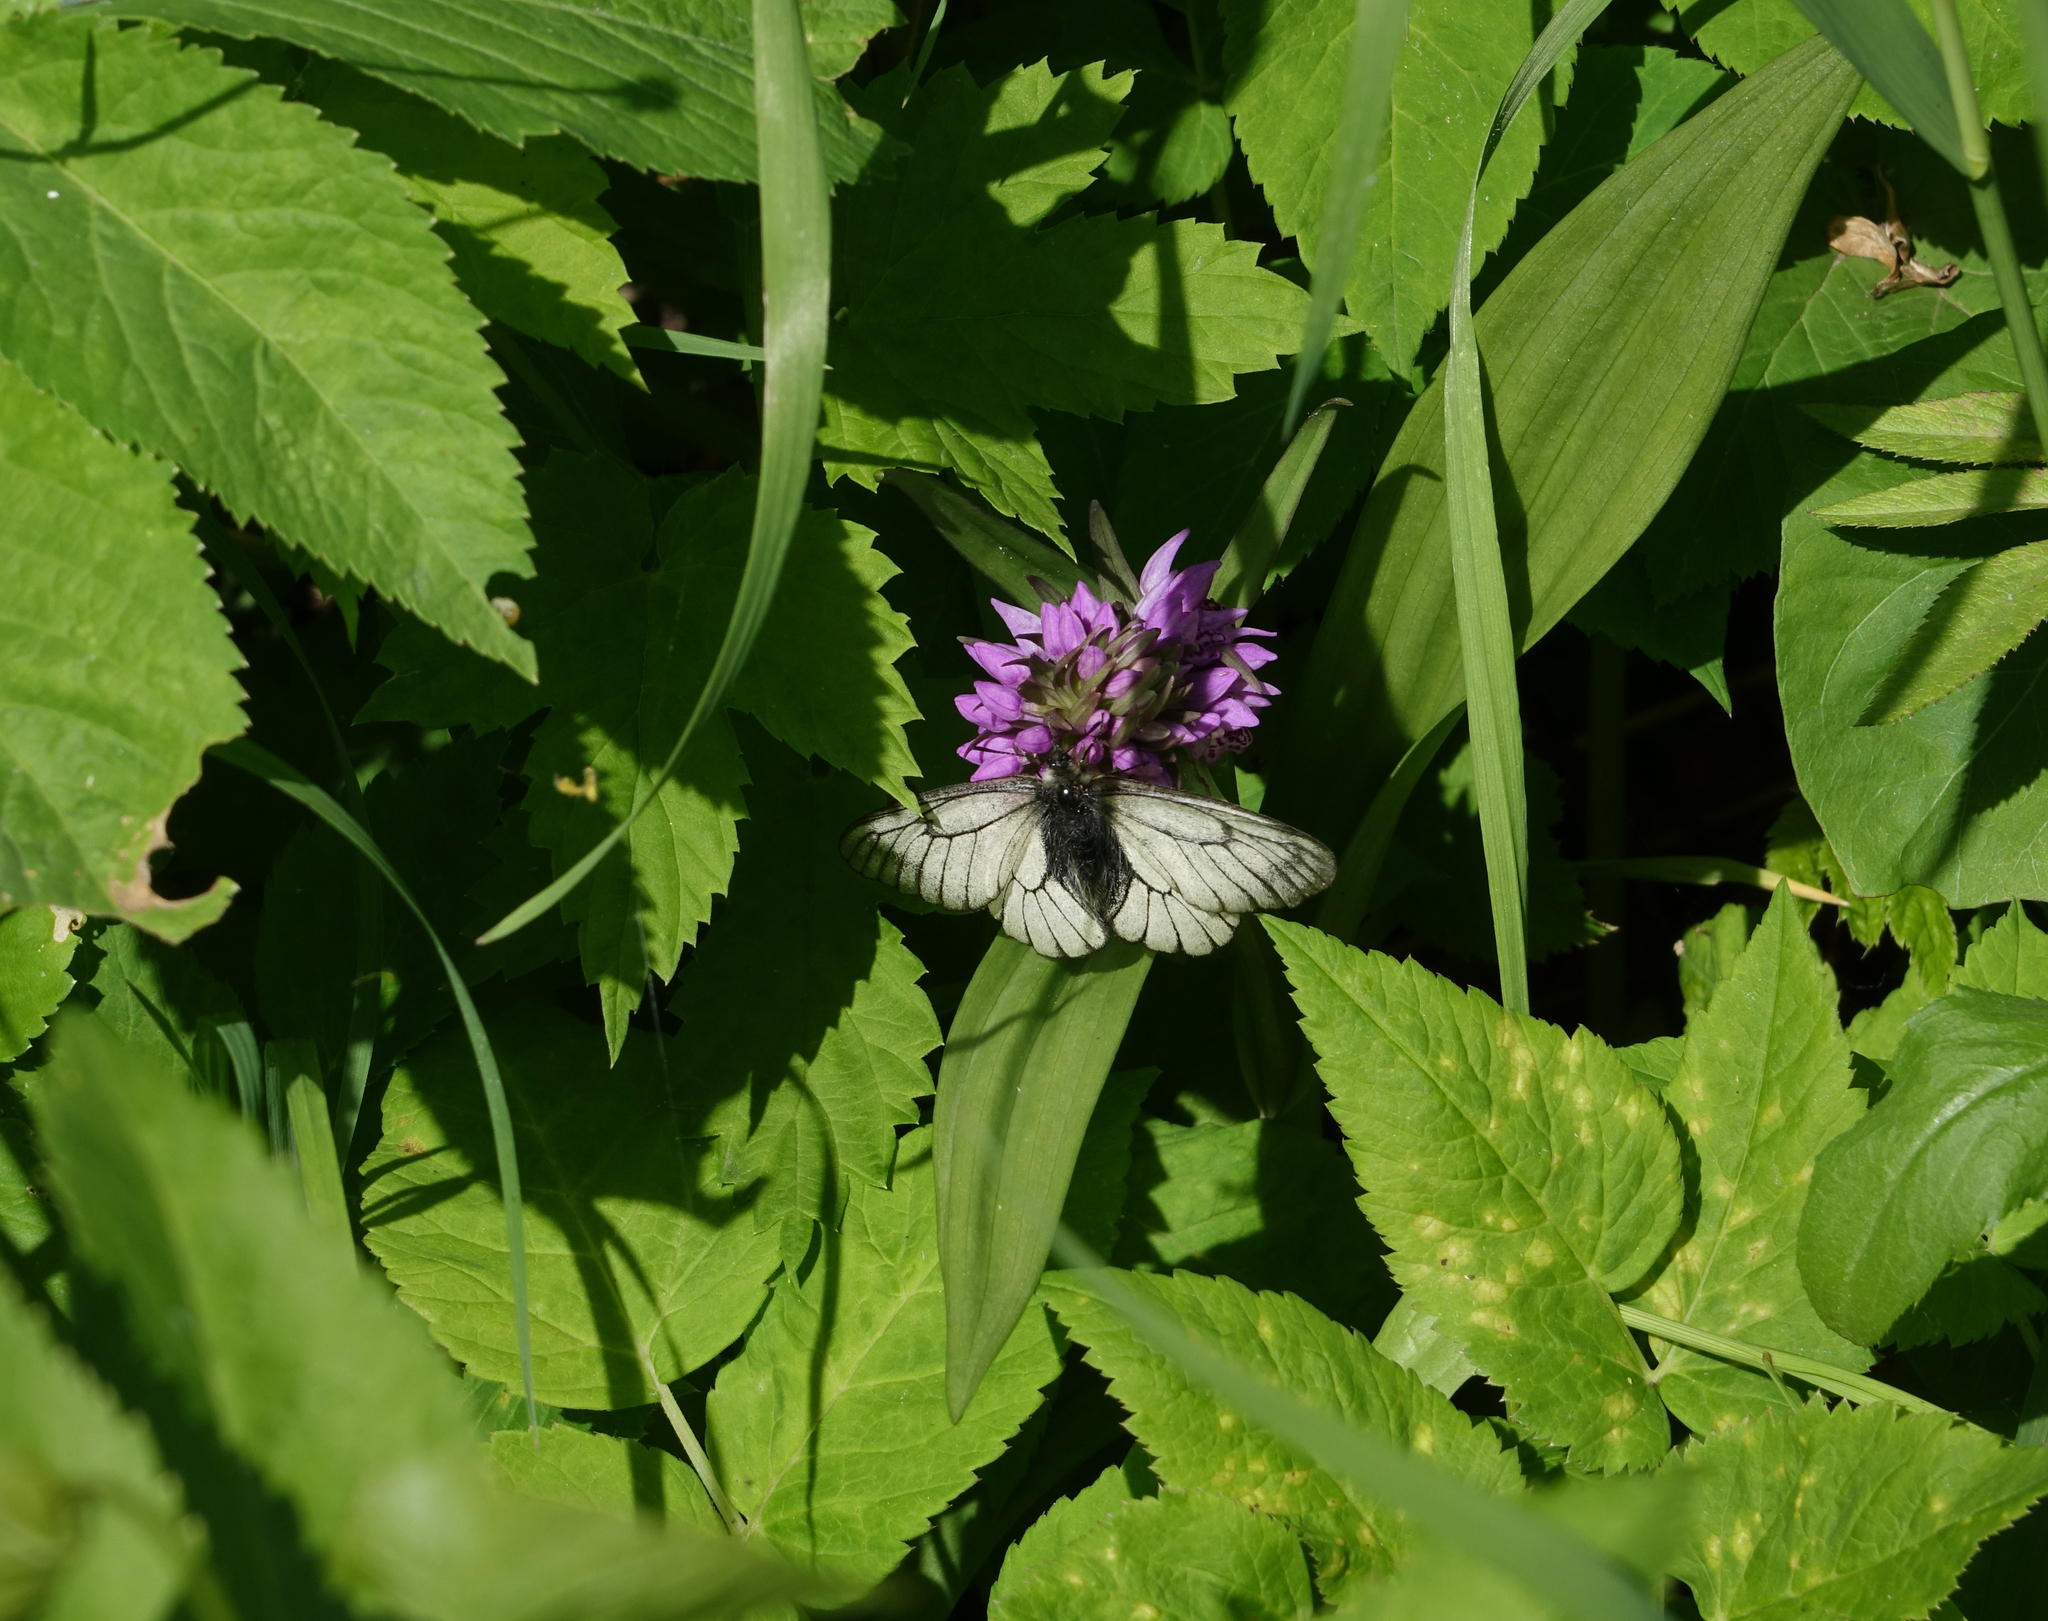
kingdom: Plantae
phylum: Tracheophyta
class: Liliopsida
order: Asparagales
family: Orchidaceae
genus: Dactylorhiza
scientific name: Dactylorhiza incarnata
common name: Early marsh-orchid
